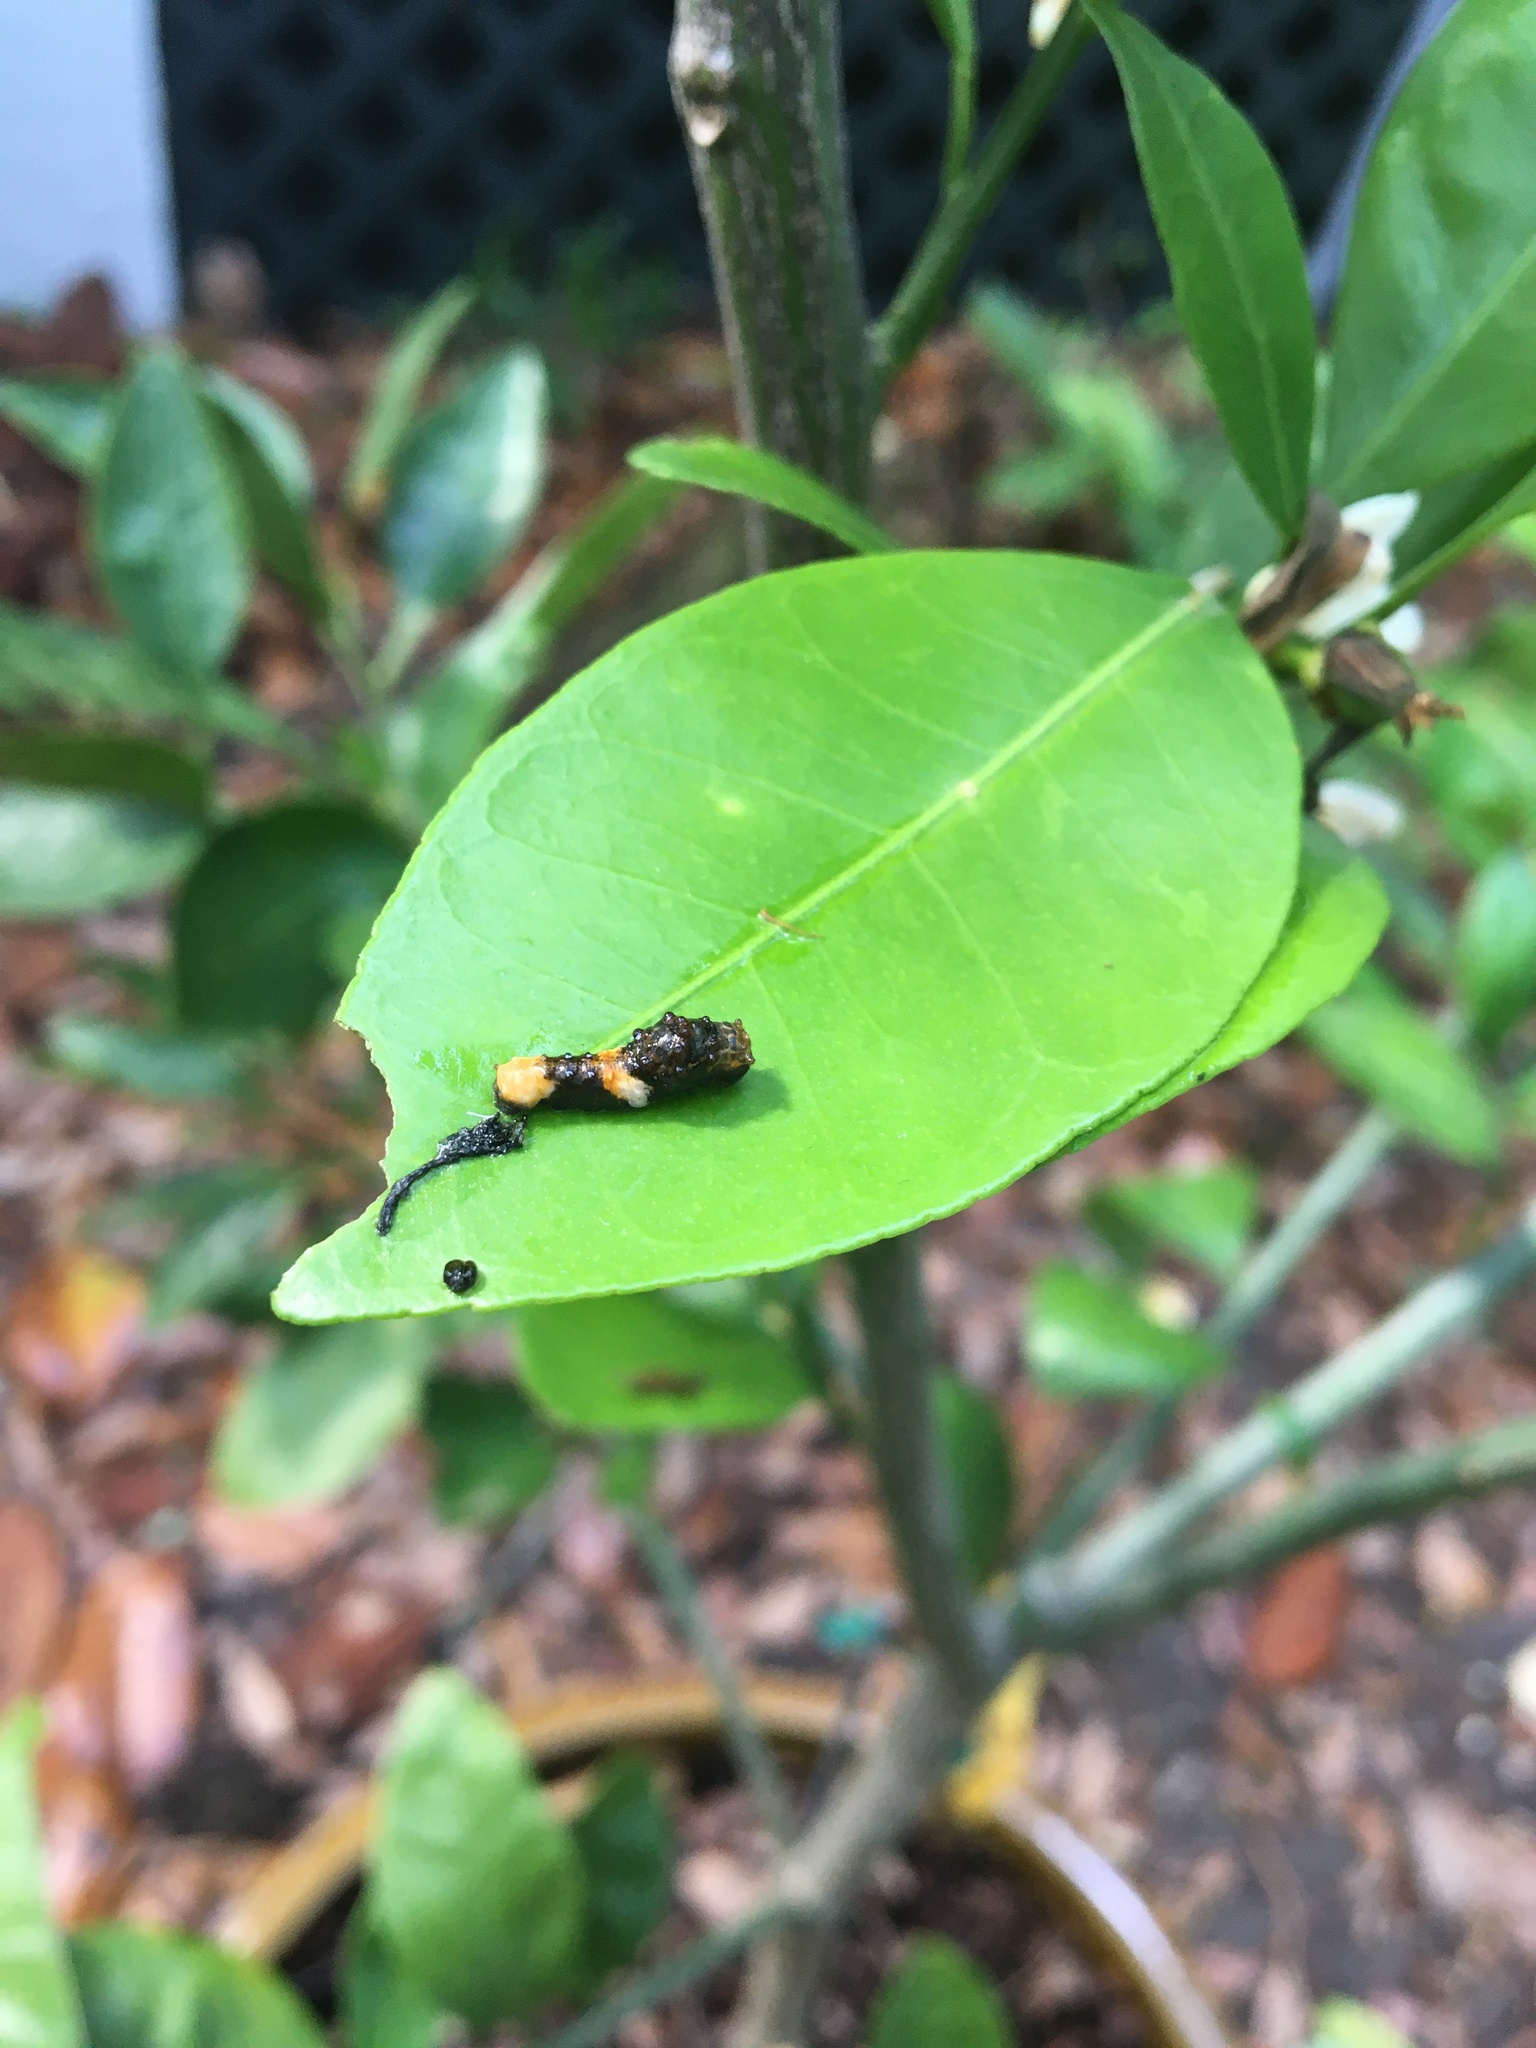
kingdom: Animalia
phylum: Arthropoda
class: Insecta
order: Lepidoptera
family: Papilionidae
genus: Papilio
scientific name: Papilio cresphontes
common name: Giant swallowtail
